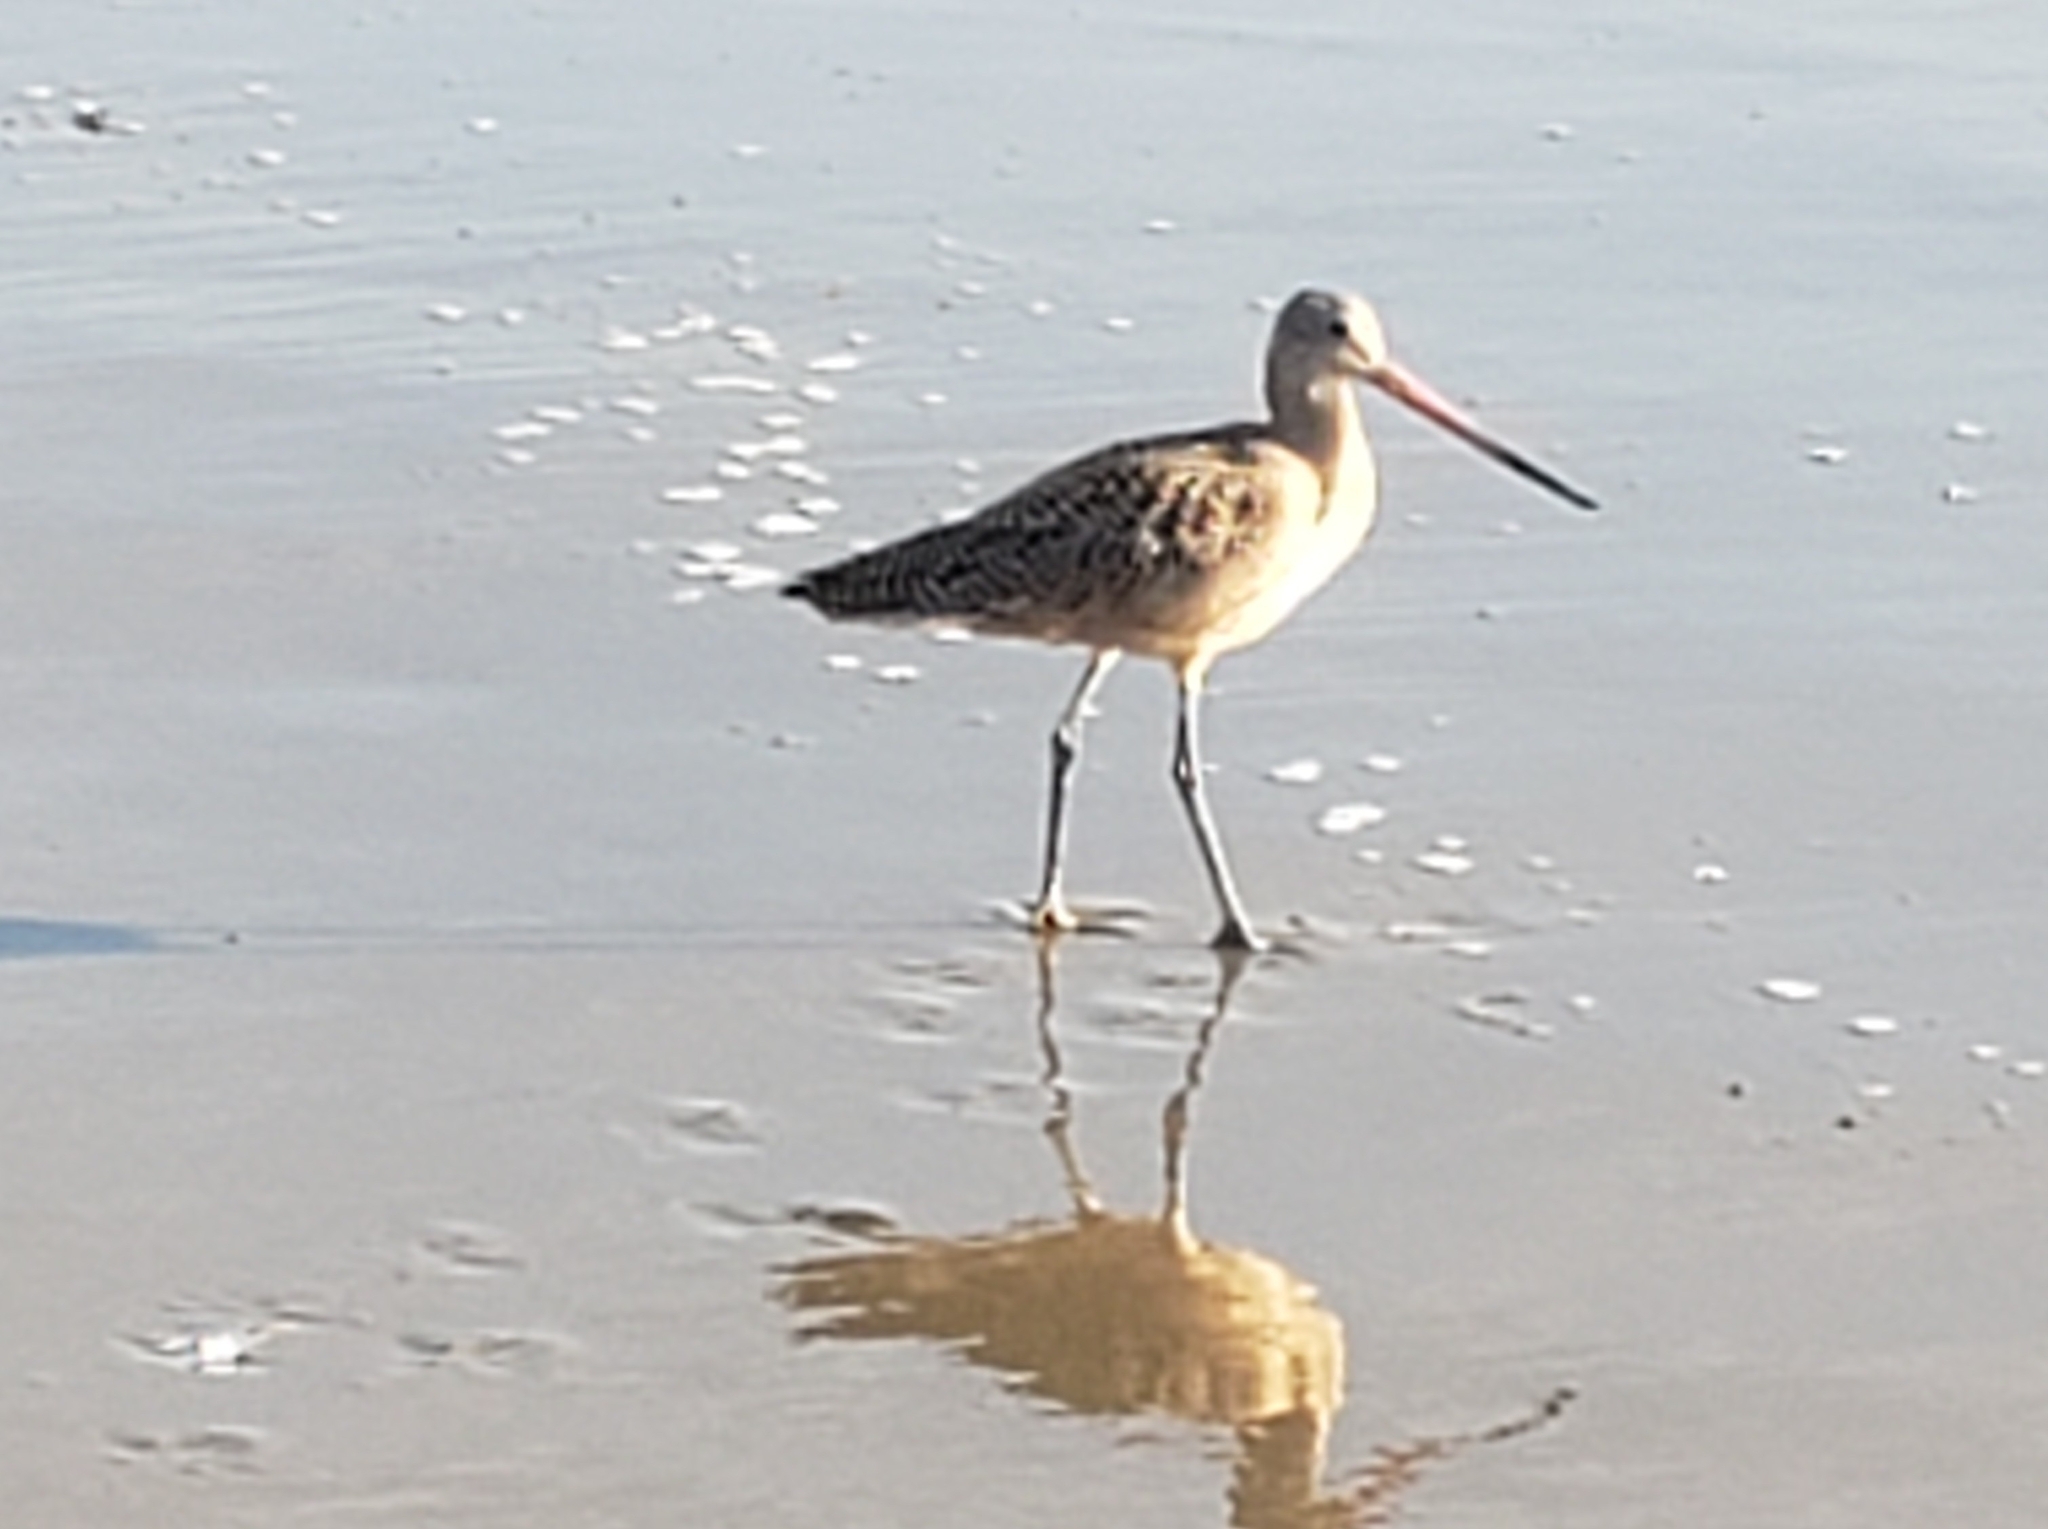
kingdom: Animalia
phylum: Chordata
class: Aves
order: Charadriiformes
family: Scolopacidae
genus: Limosa
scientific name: Limosa fedoa
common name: Marbled godwit
